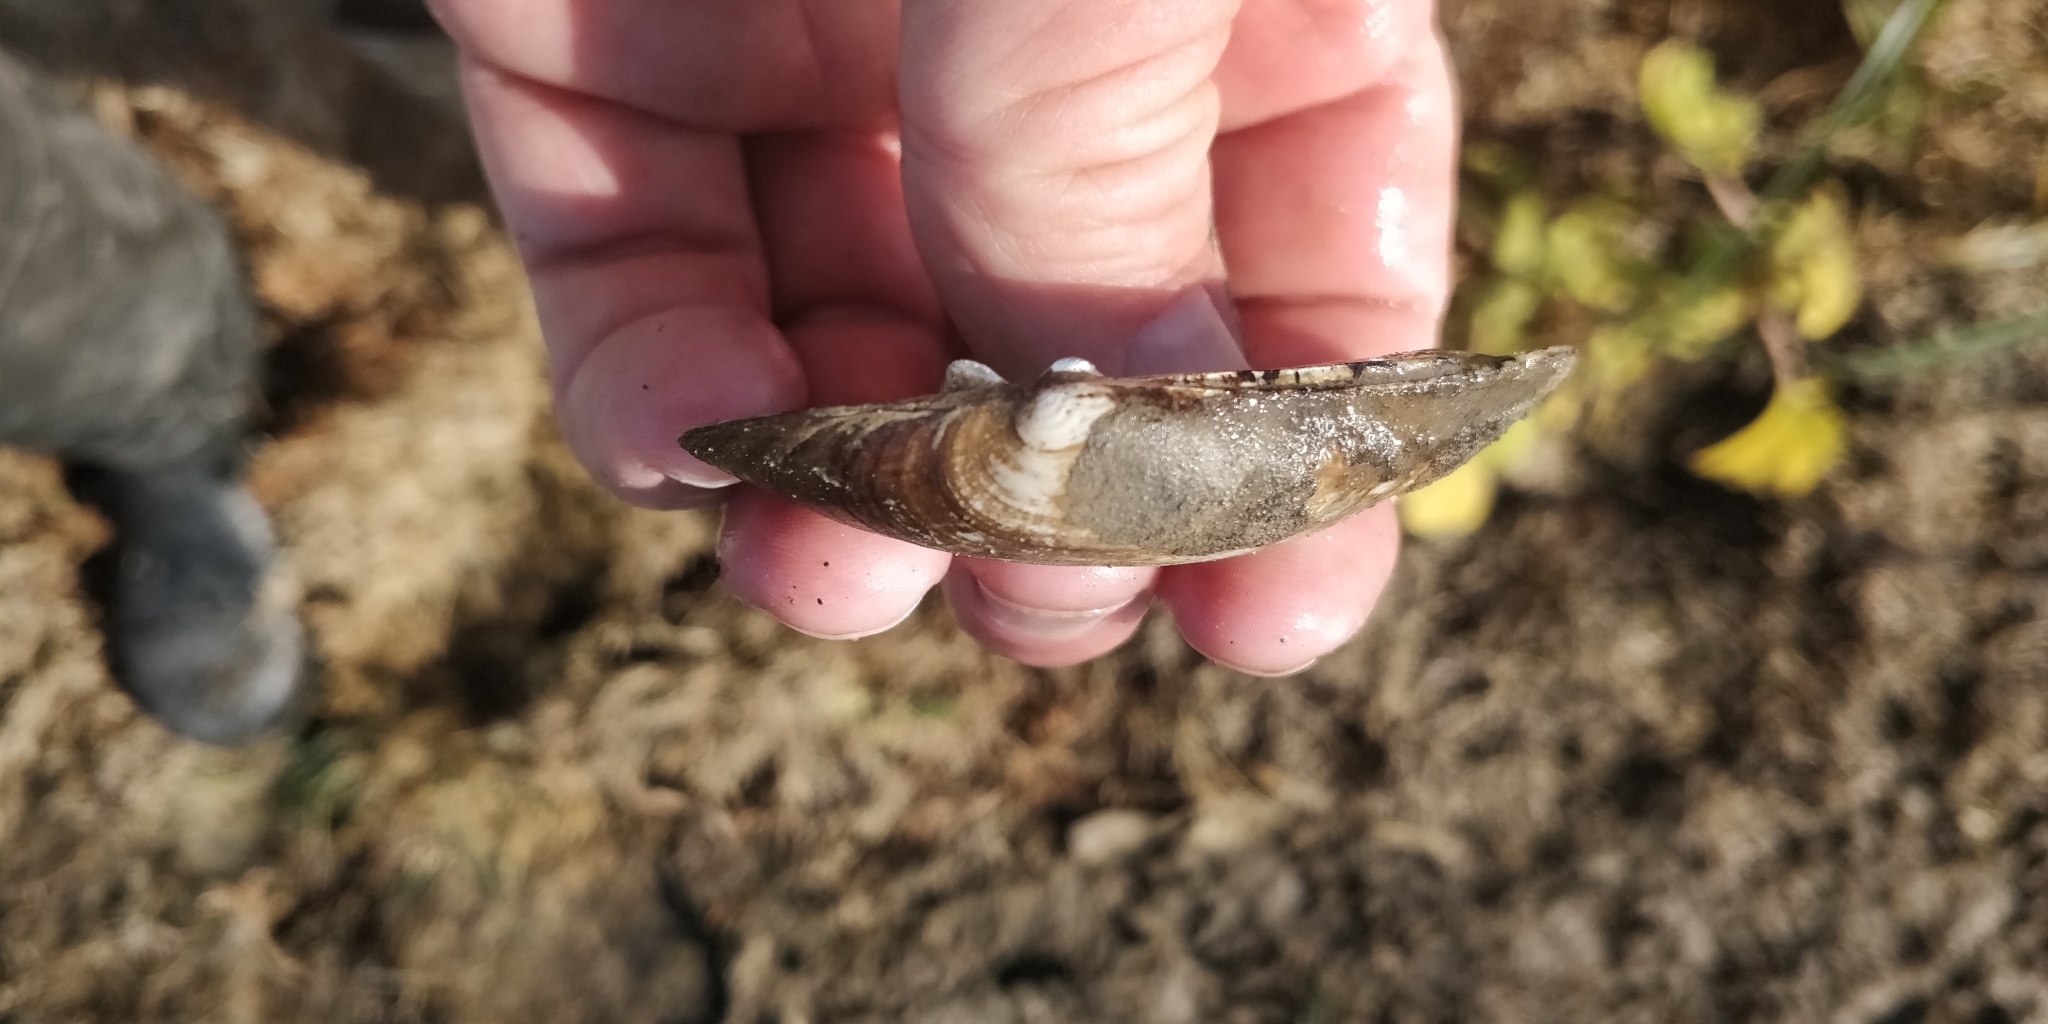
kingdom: Animalia
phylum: Mollusca
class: Bivalvia
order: Unionida
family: Unionidae
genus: Lampsilis
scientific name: Lampsilis siliquoidea
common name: Fatmucket
